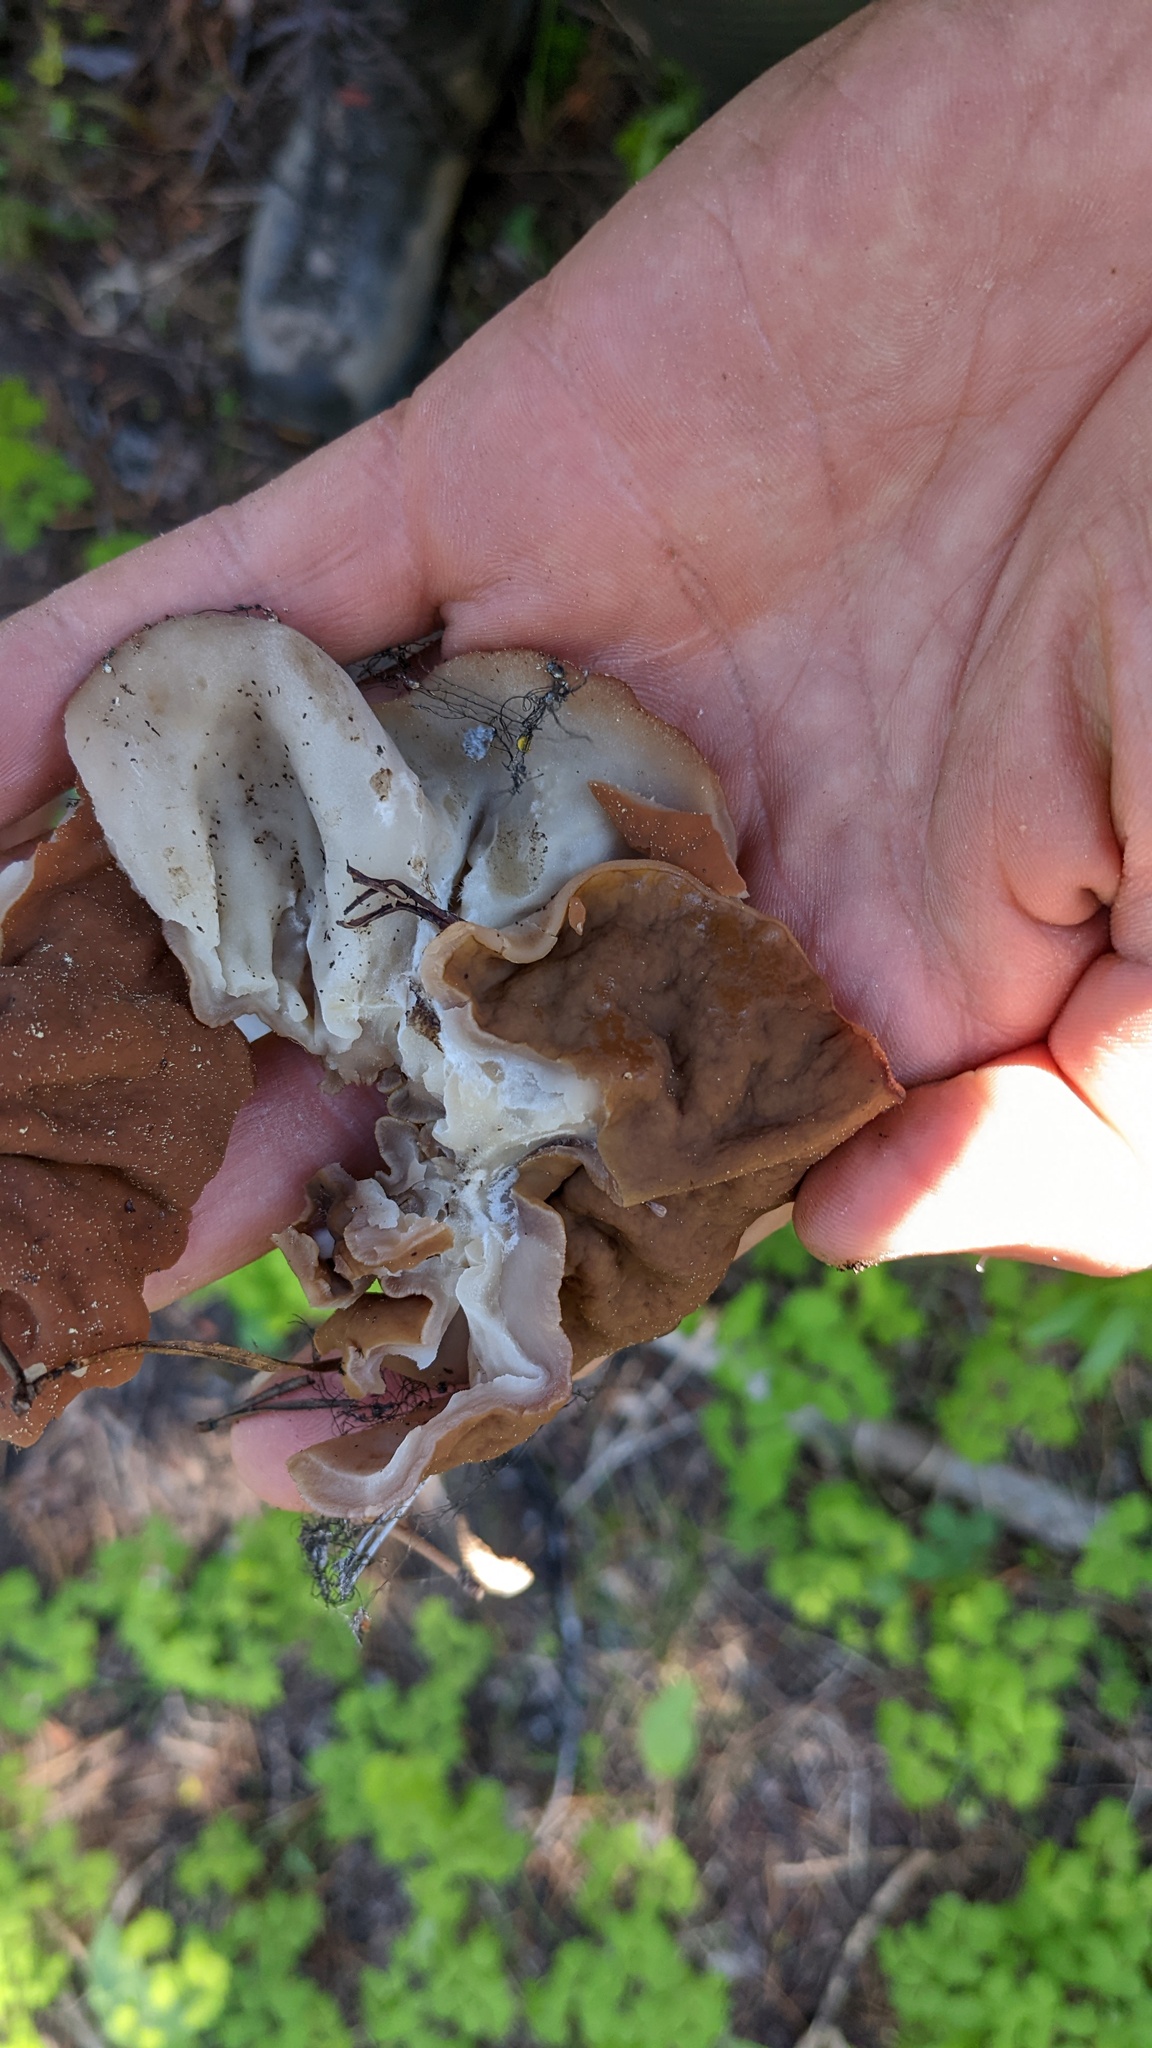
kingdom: Fungi
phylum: Ascomycota
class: Pezizomycetes
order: Pezizales
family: Discinaceae
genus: Discina
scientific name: Discina ancilis
